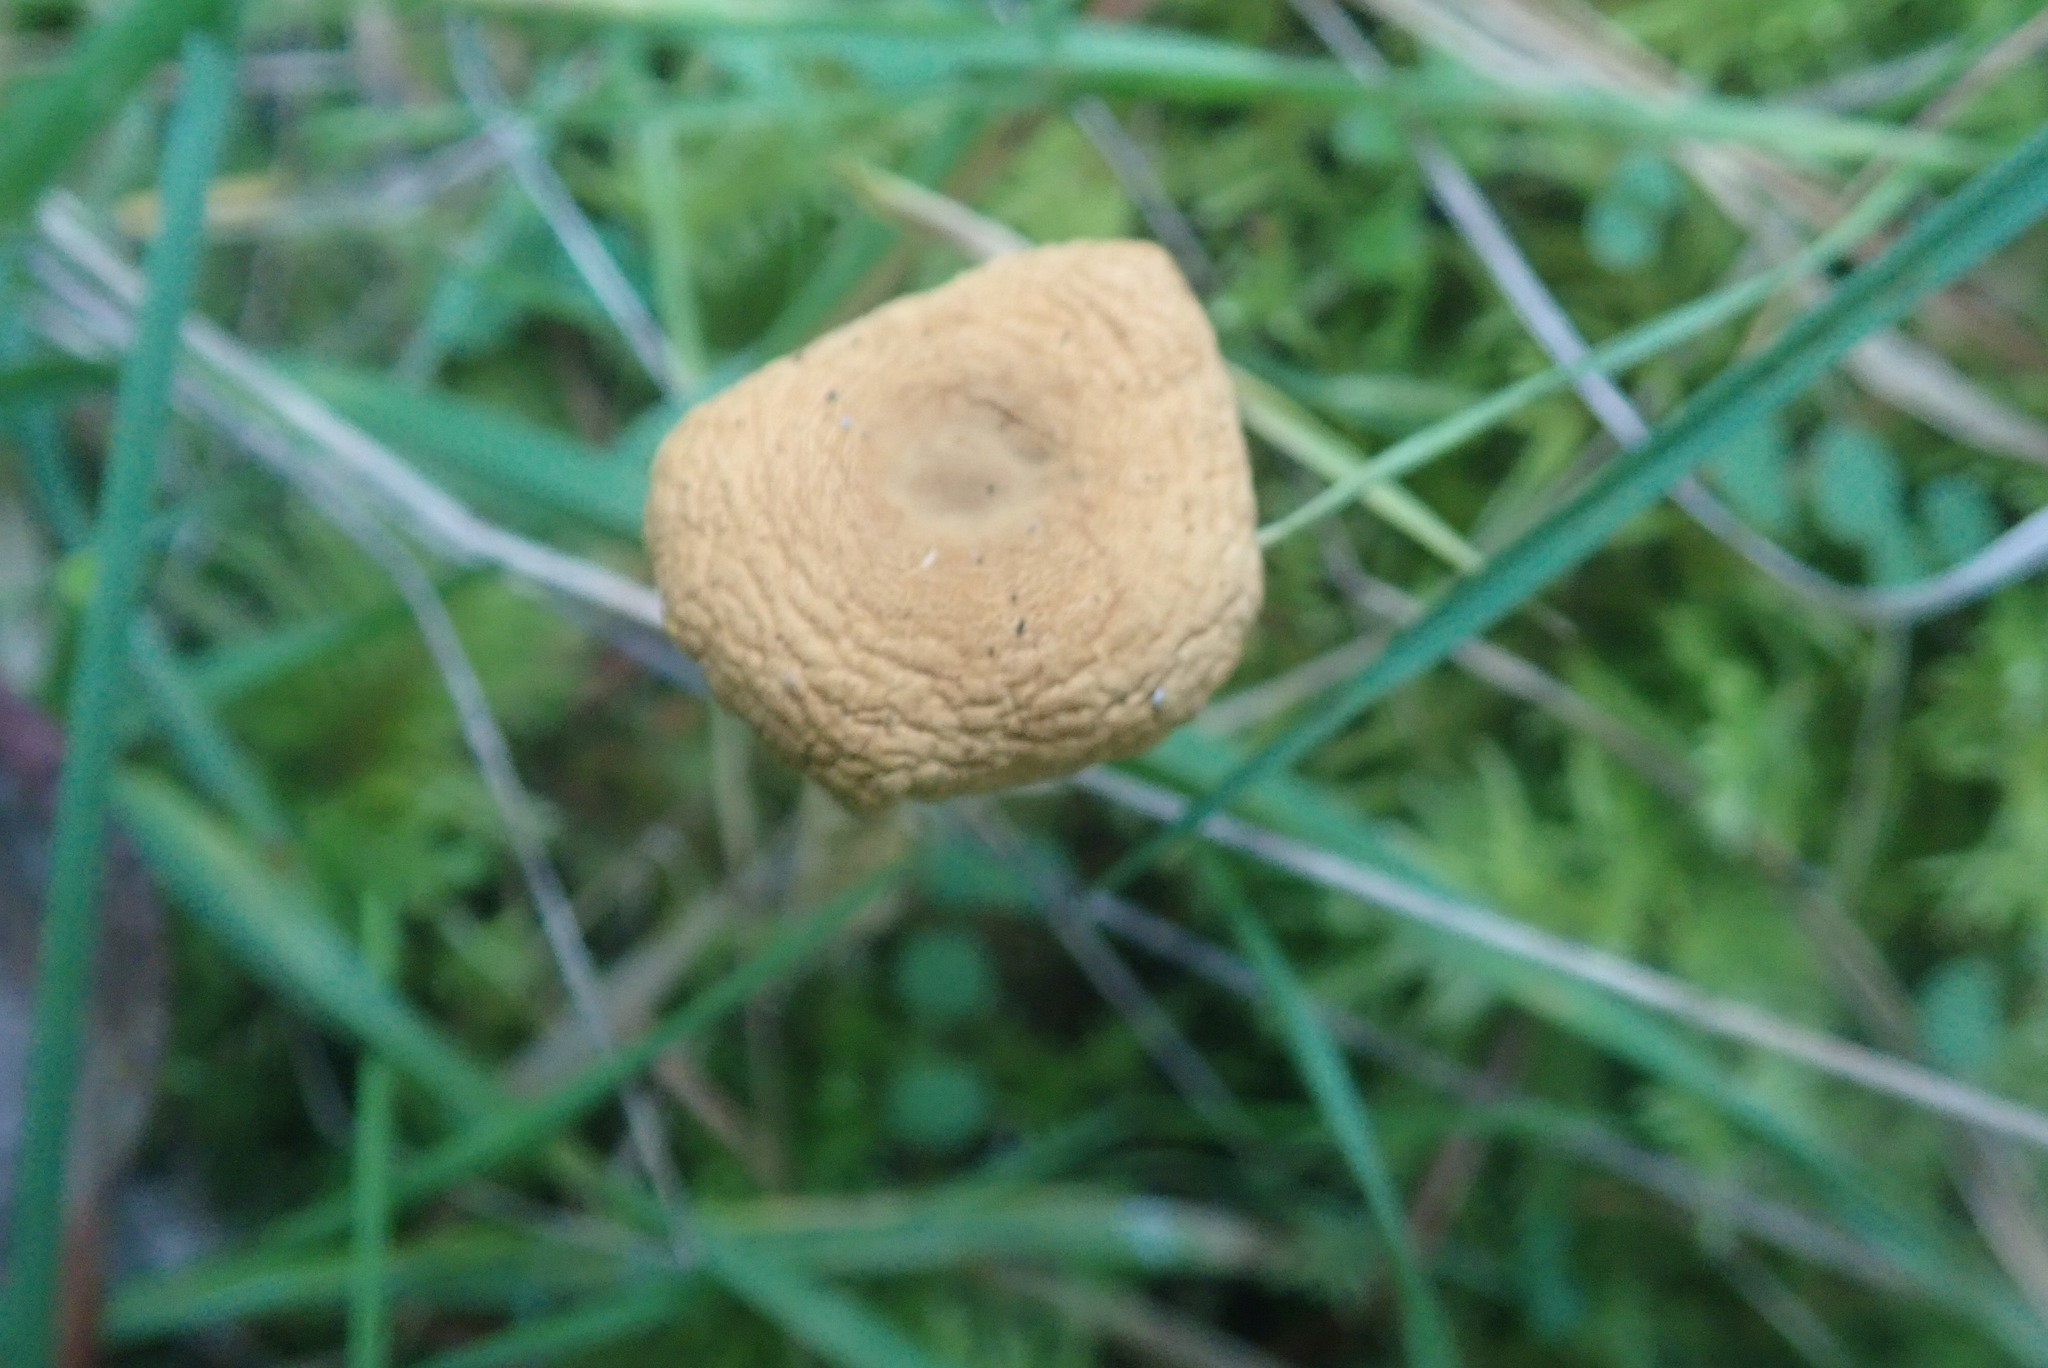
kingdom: Fungi
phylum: Basidiomycota
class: Agaricomycetes
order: Agaricales
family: Tricholomataceae
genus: Cystoderma
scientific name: Cystoderma amianthinum
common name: Earthy powdercap
